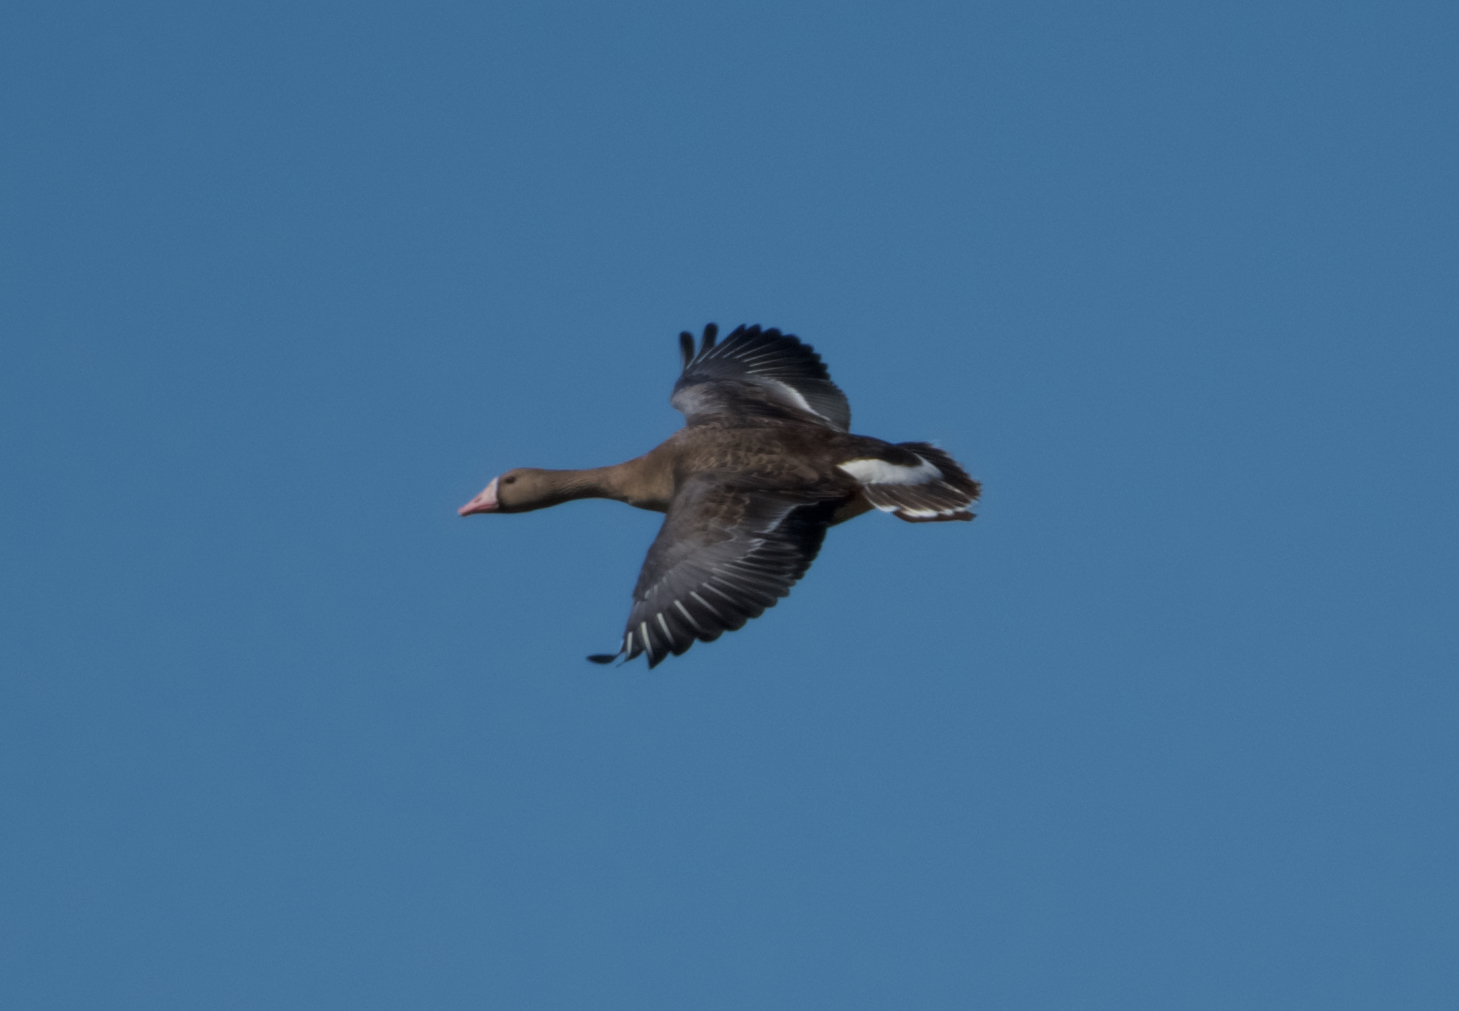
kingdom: Animalia
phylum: Chordata
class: Aves
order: Anseriformes
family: Anatidae
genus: Anser
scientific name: Anser albifrons
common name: Greater white-fronted goose
